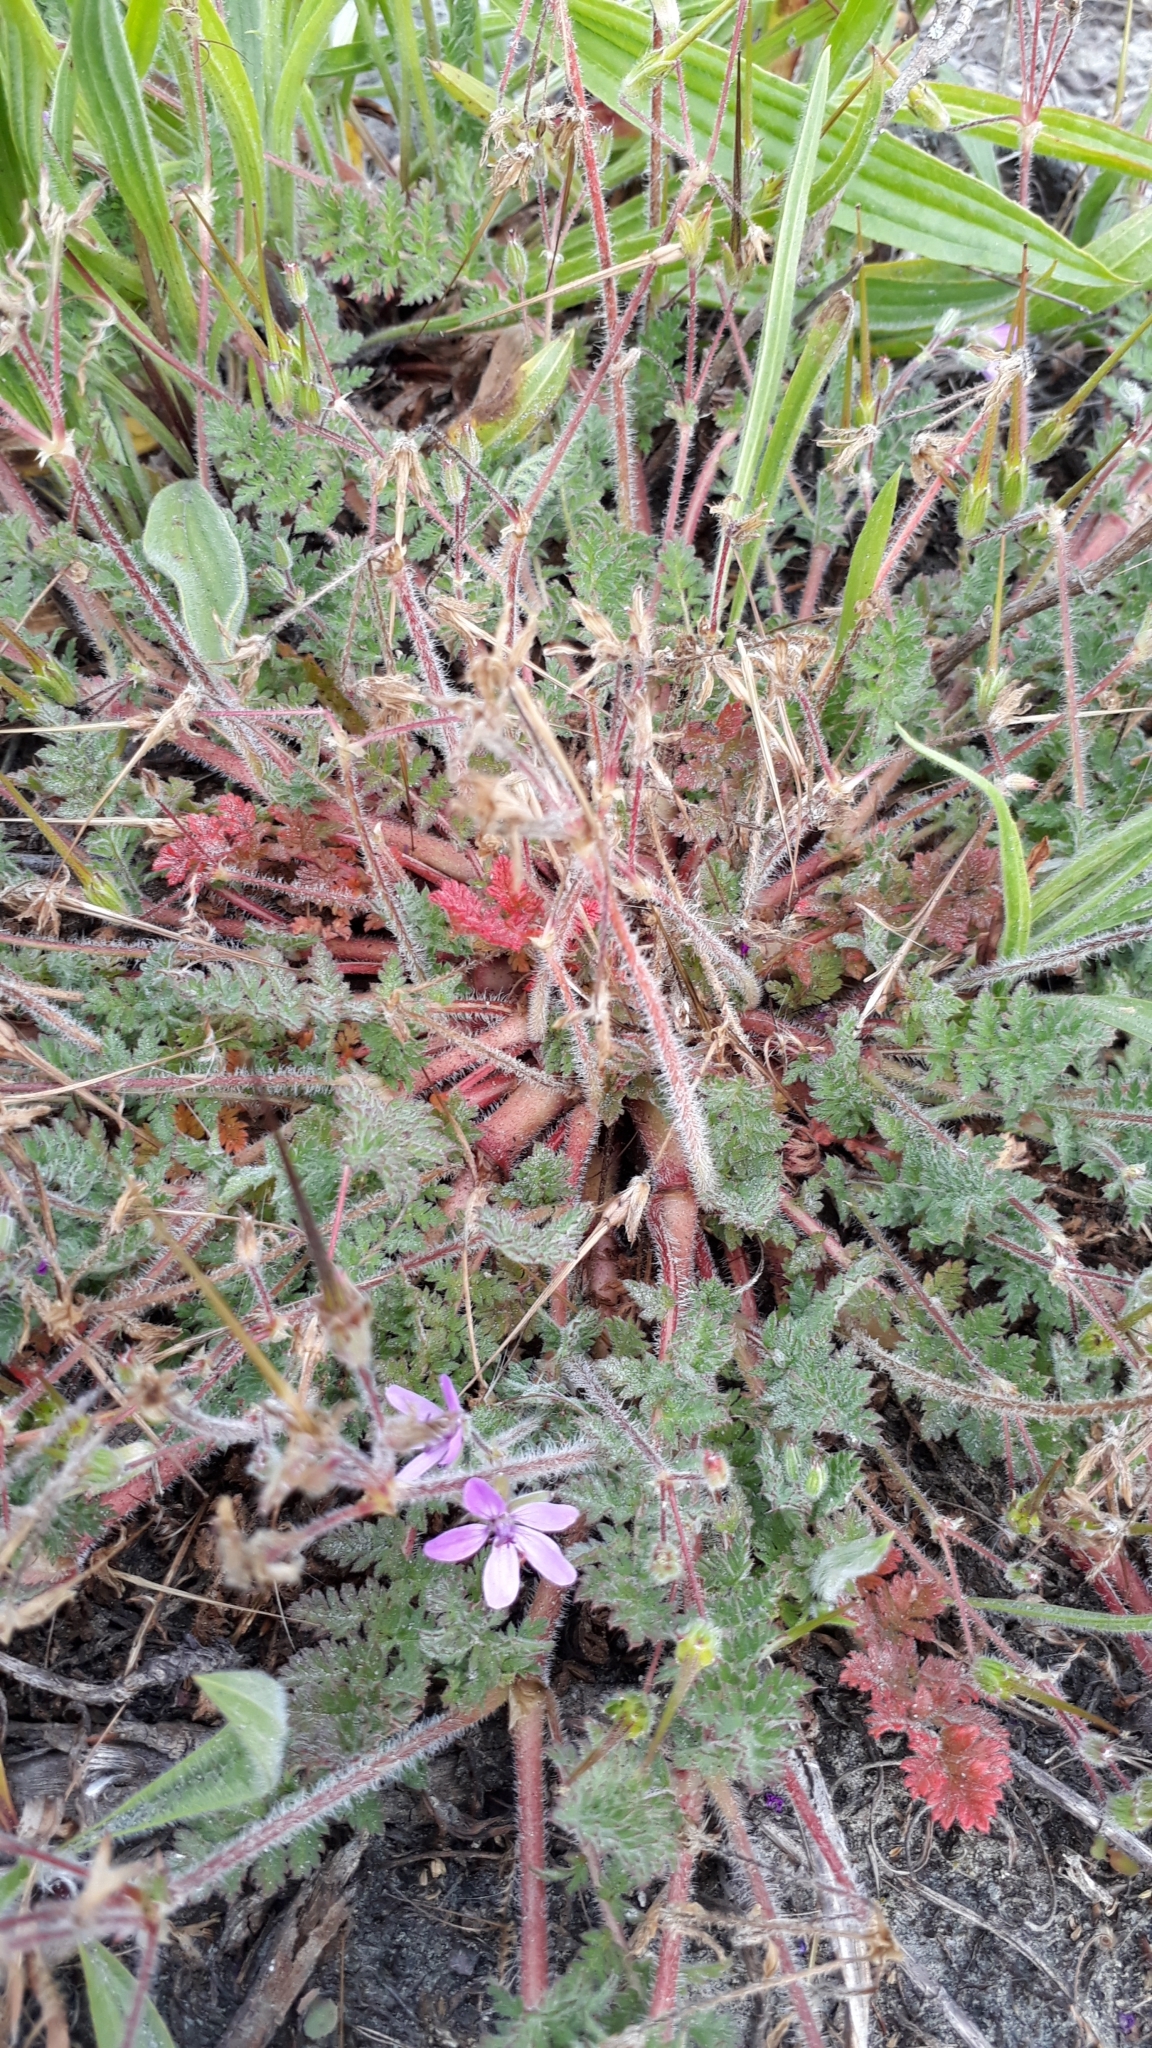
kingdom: Plantae
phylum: Tracheophyta
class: Magnoliopsida
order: Geraniales
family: Geraniaceae
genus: Erodium
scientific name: Erodium cicutarium
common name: Common stork's-bill
